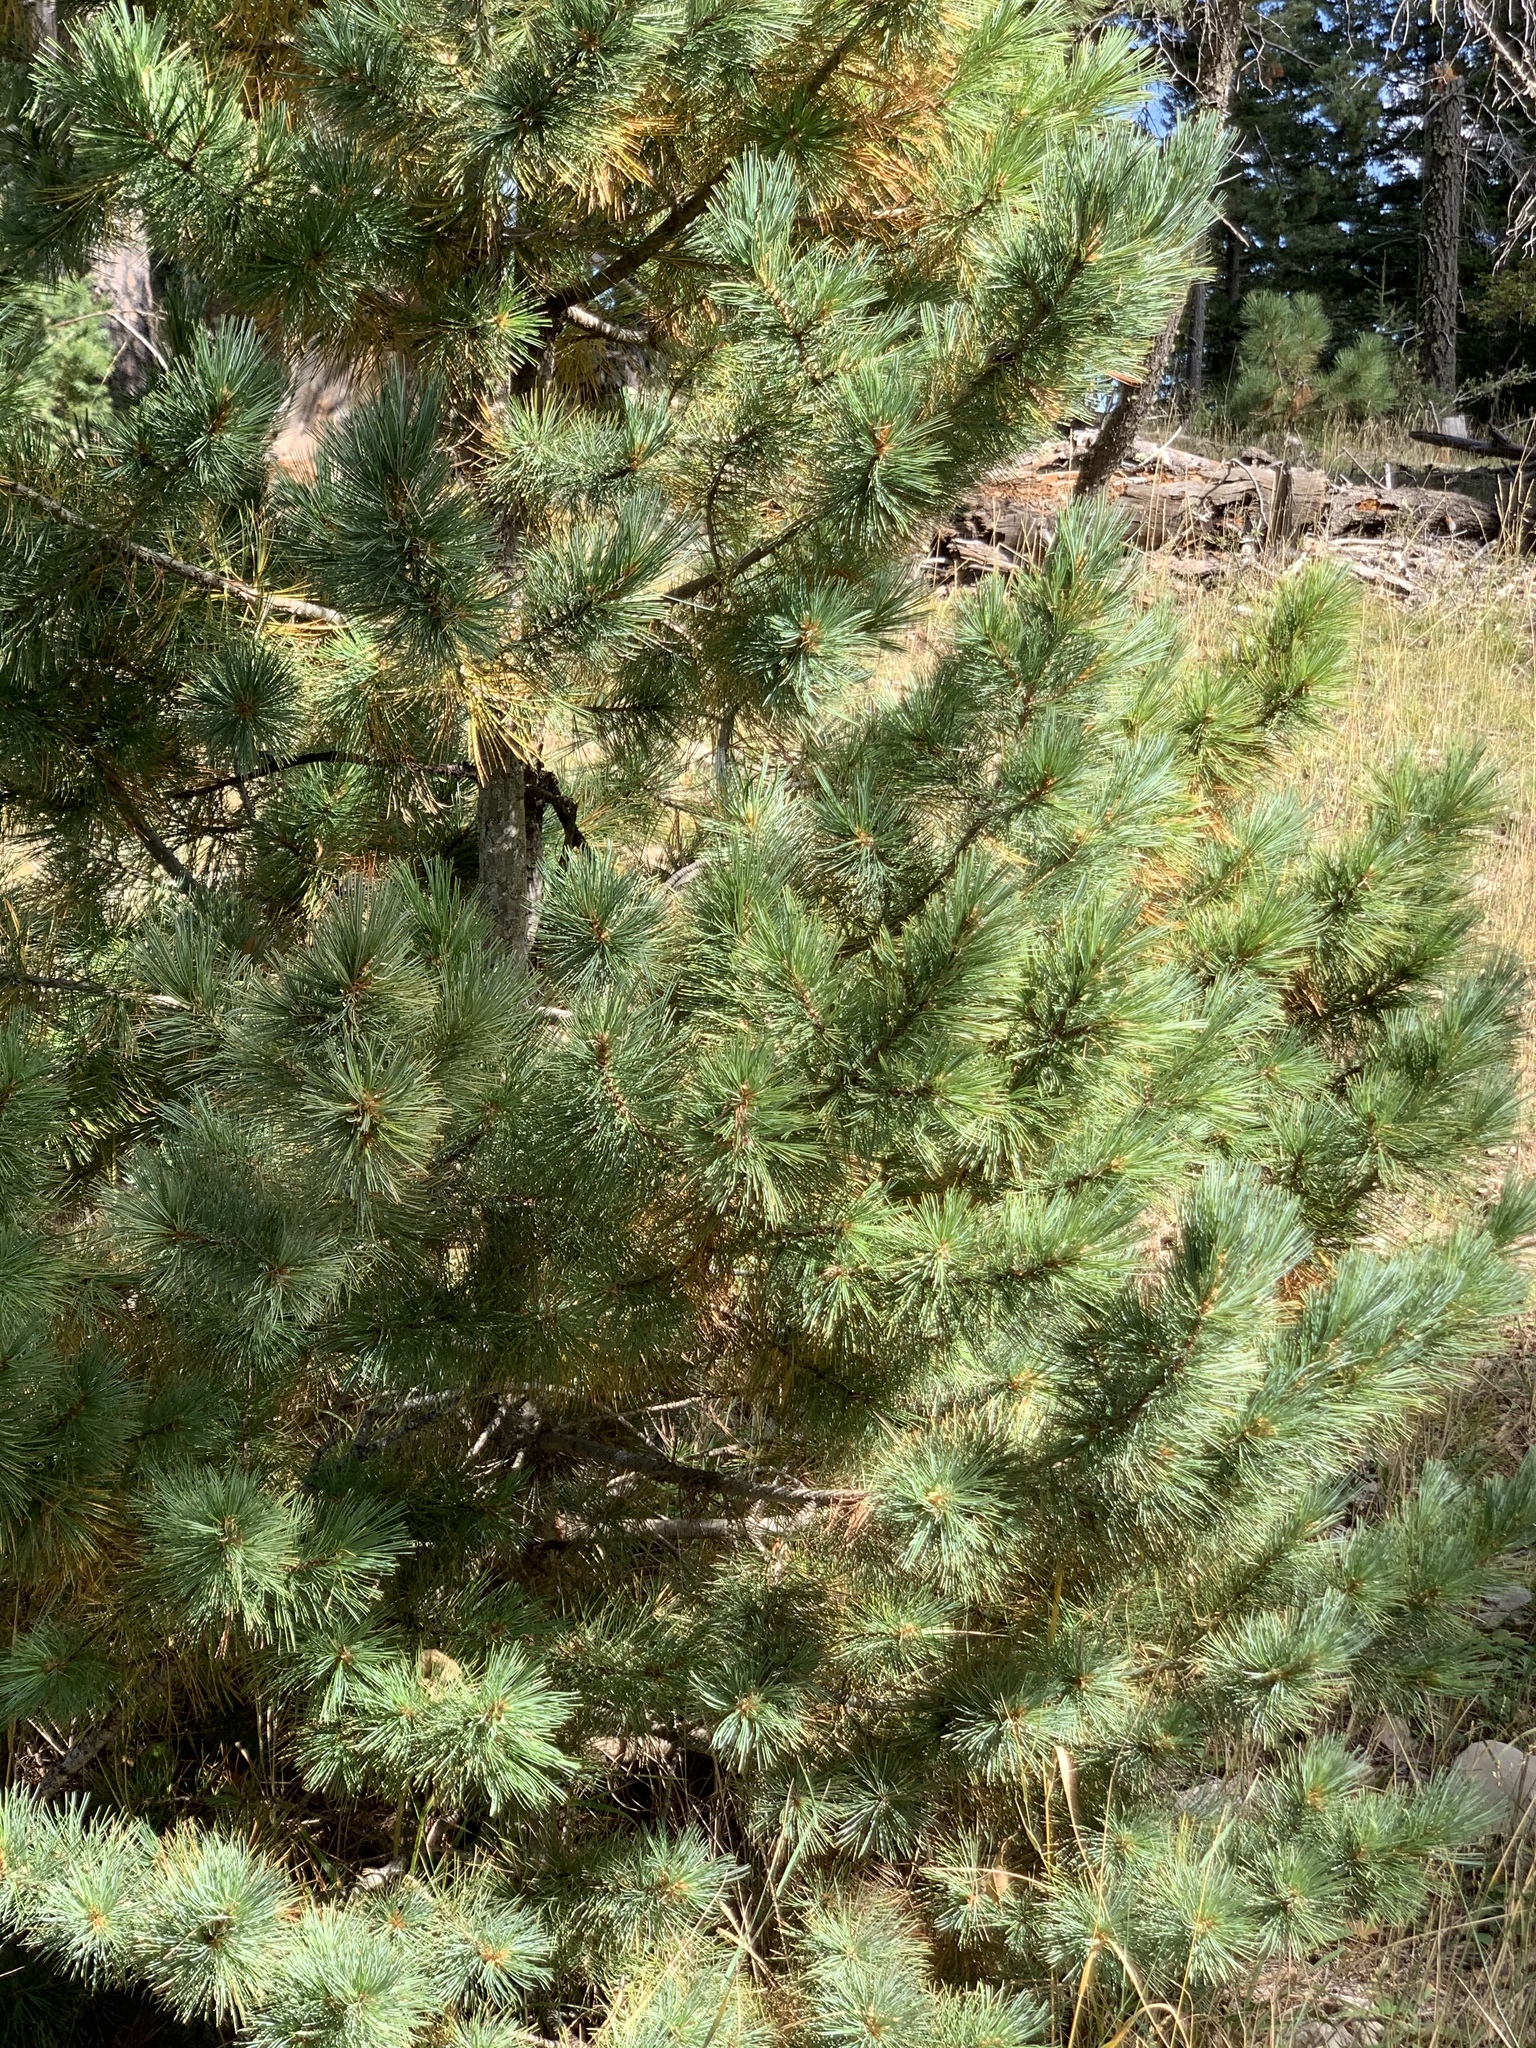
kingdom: Plantae
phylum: Tracheophyta
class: Pinopsida
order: Pinales
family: Pinaceae
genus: Pinus
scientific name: Pinus strobiformis
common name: Southwestern white pine
